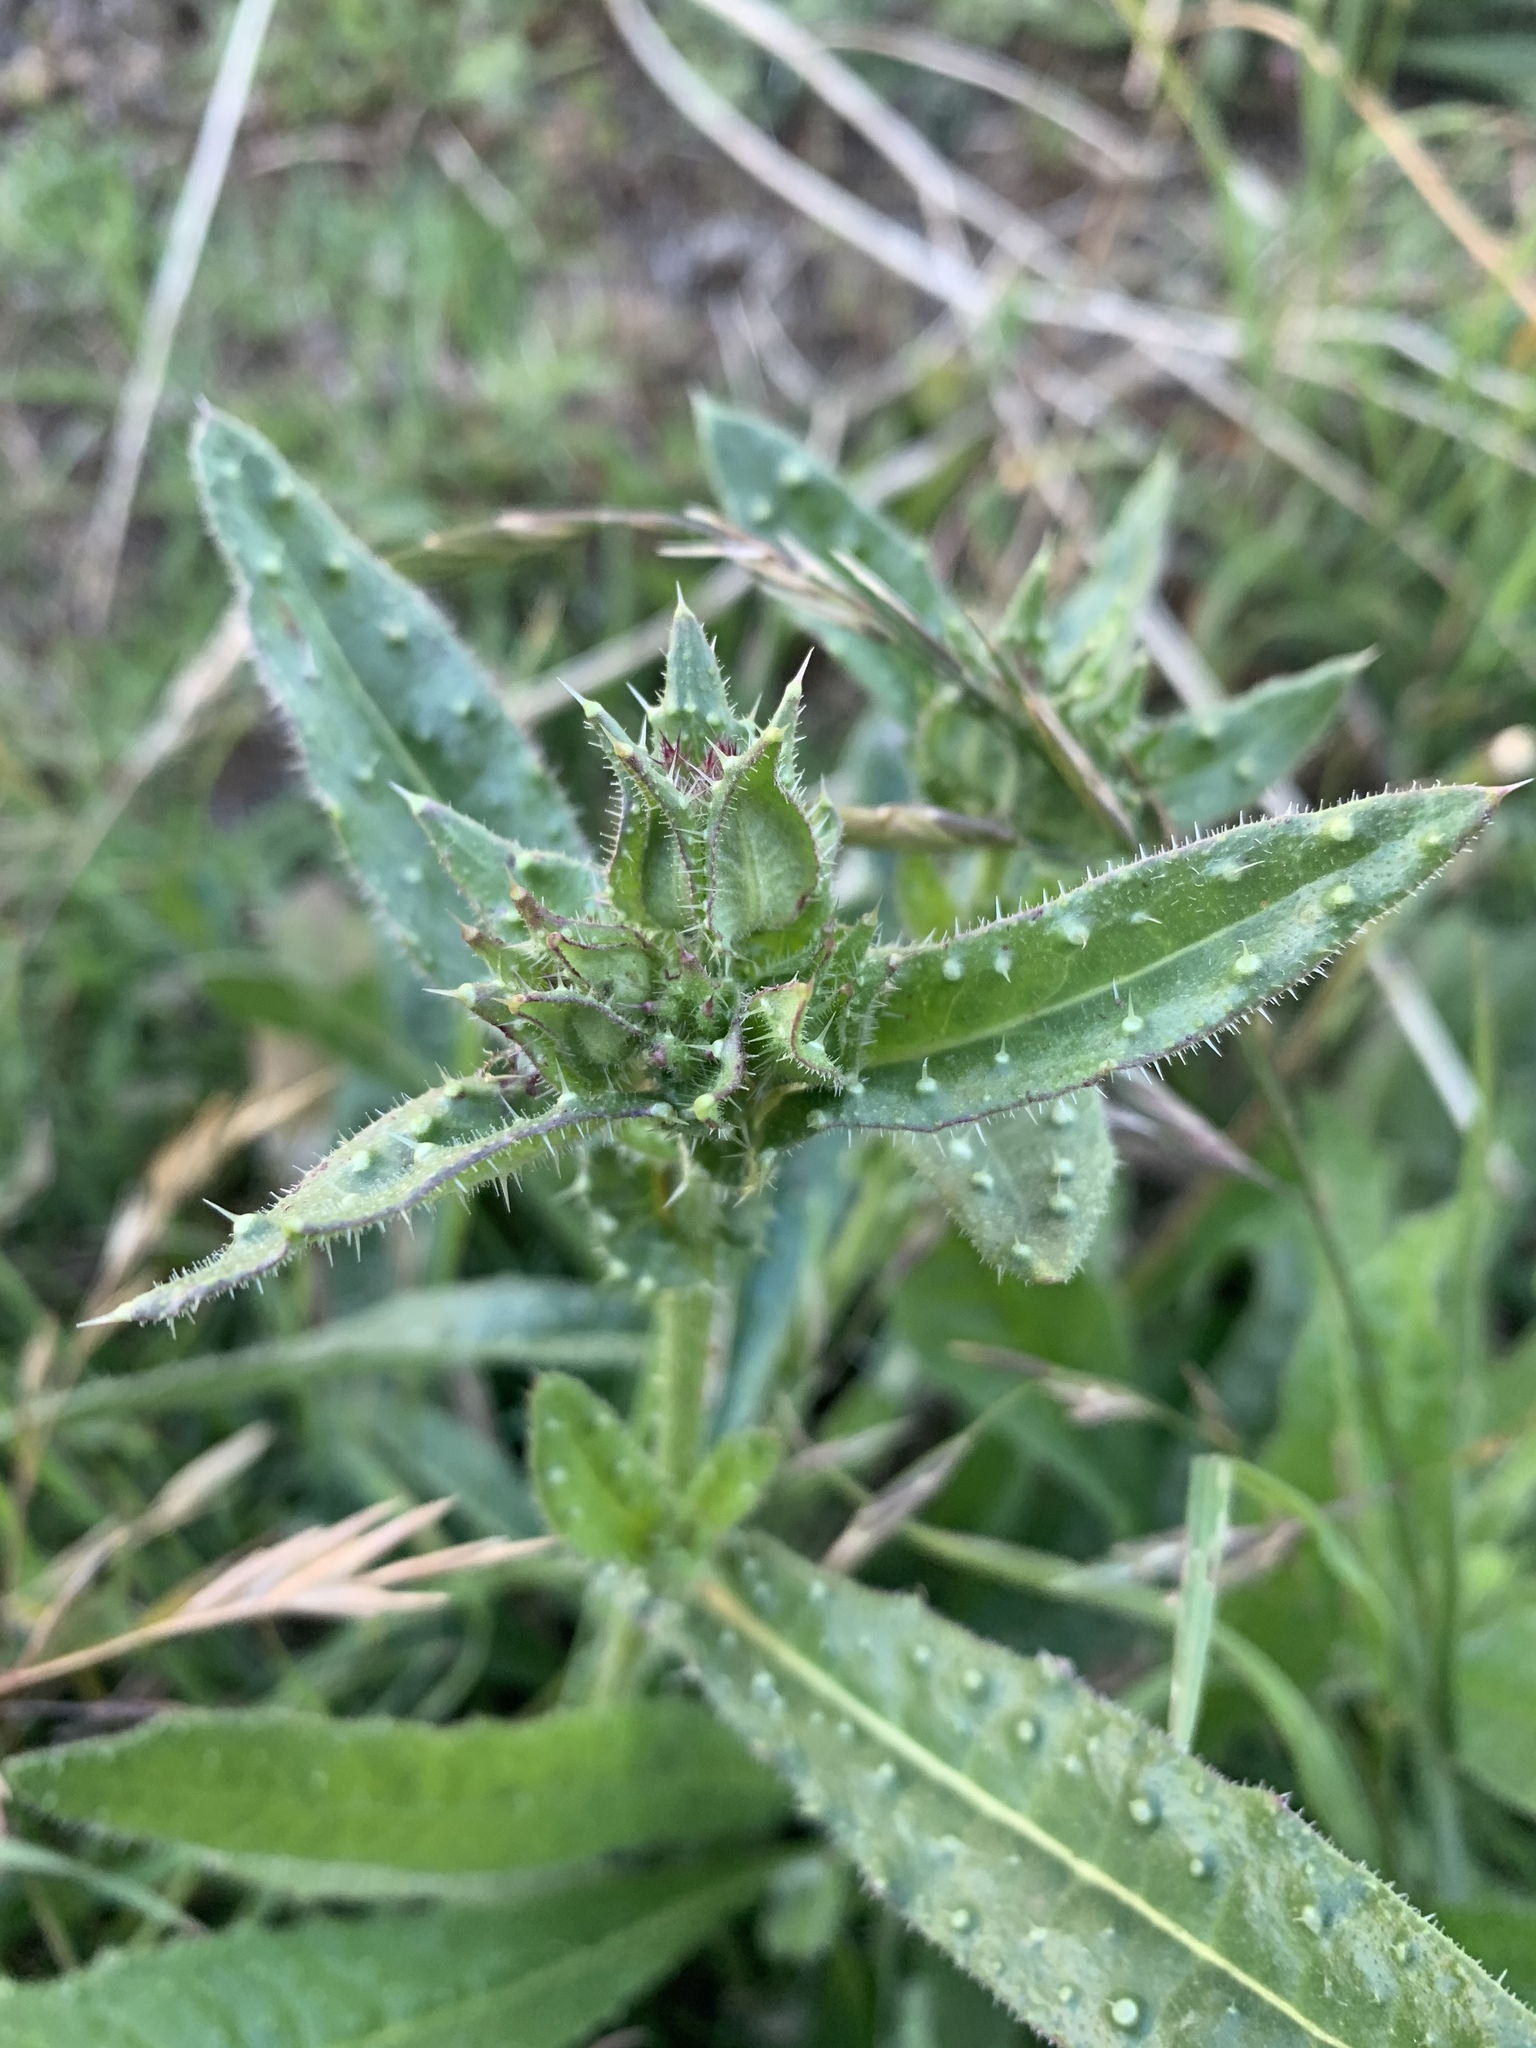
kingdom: Plantae
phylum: Tracheophyta
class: Magnoliopsida
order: Asterales
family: Asteraceae
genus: Helminthotheca
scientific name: Helminthotheca echioides
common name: Ox-tongue
